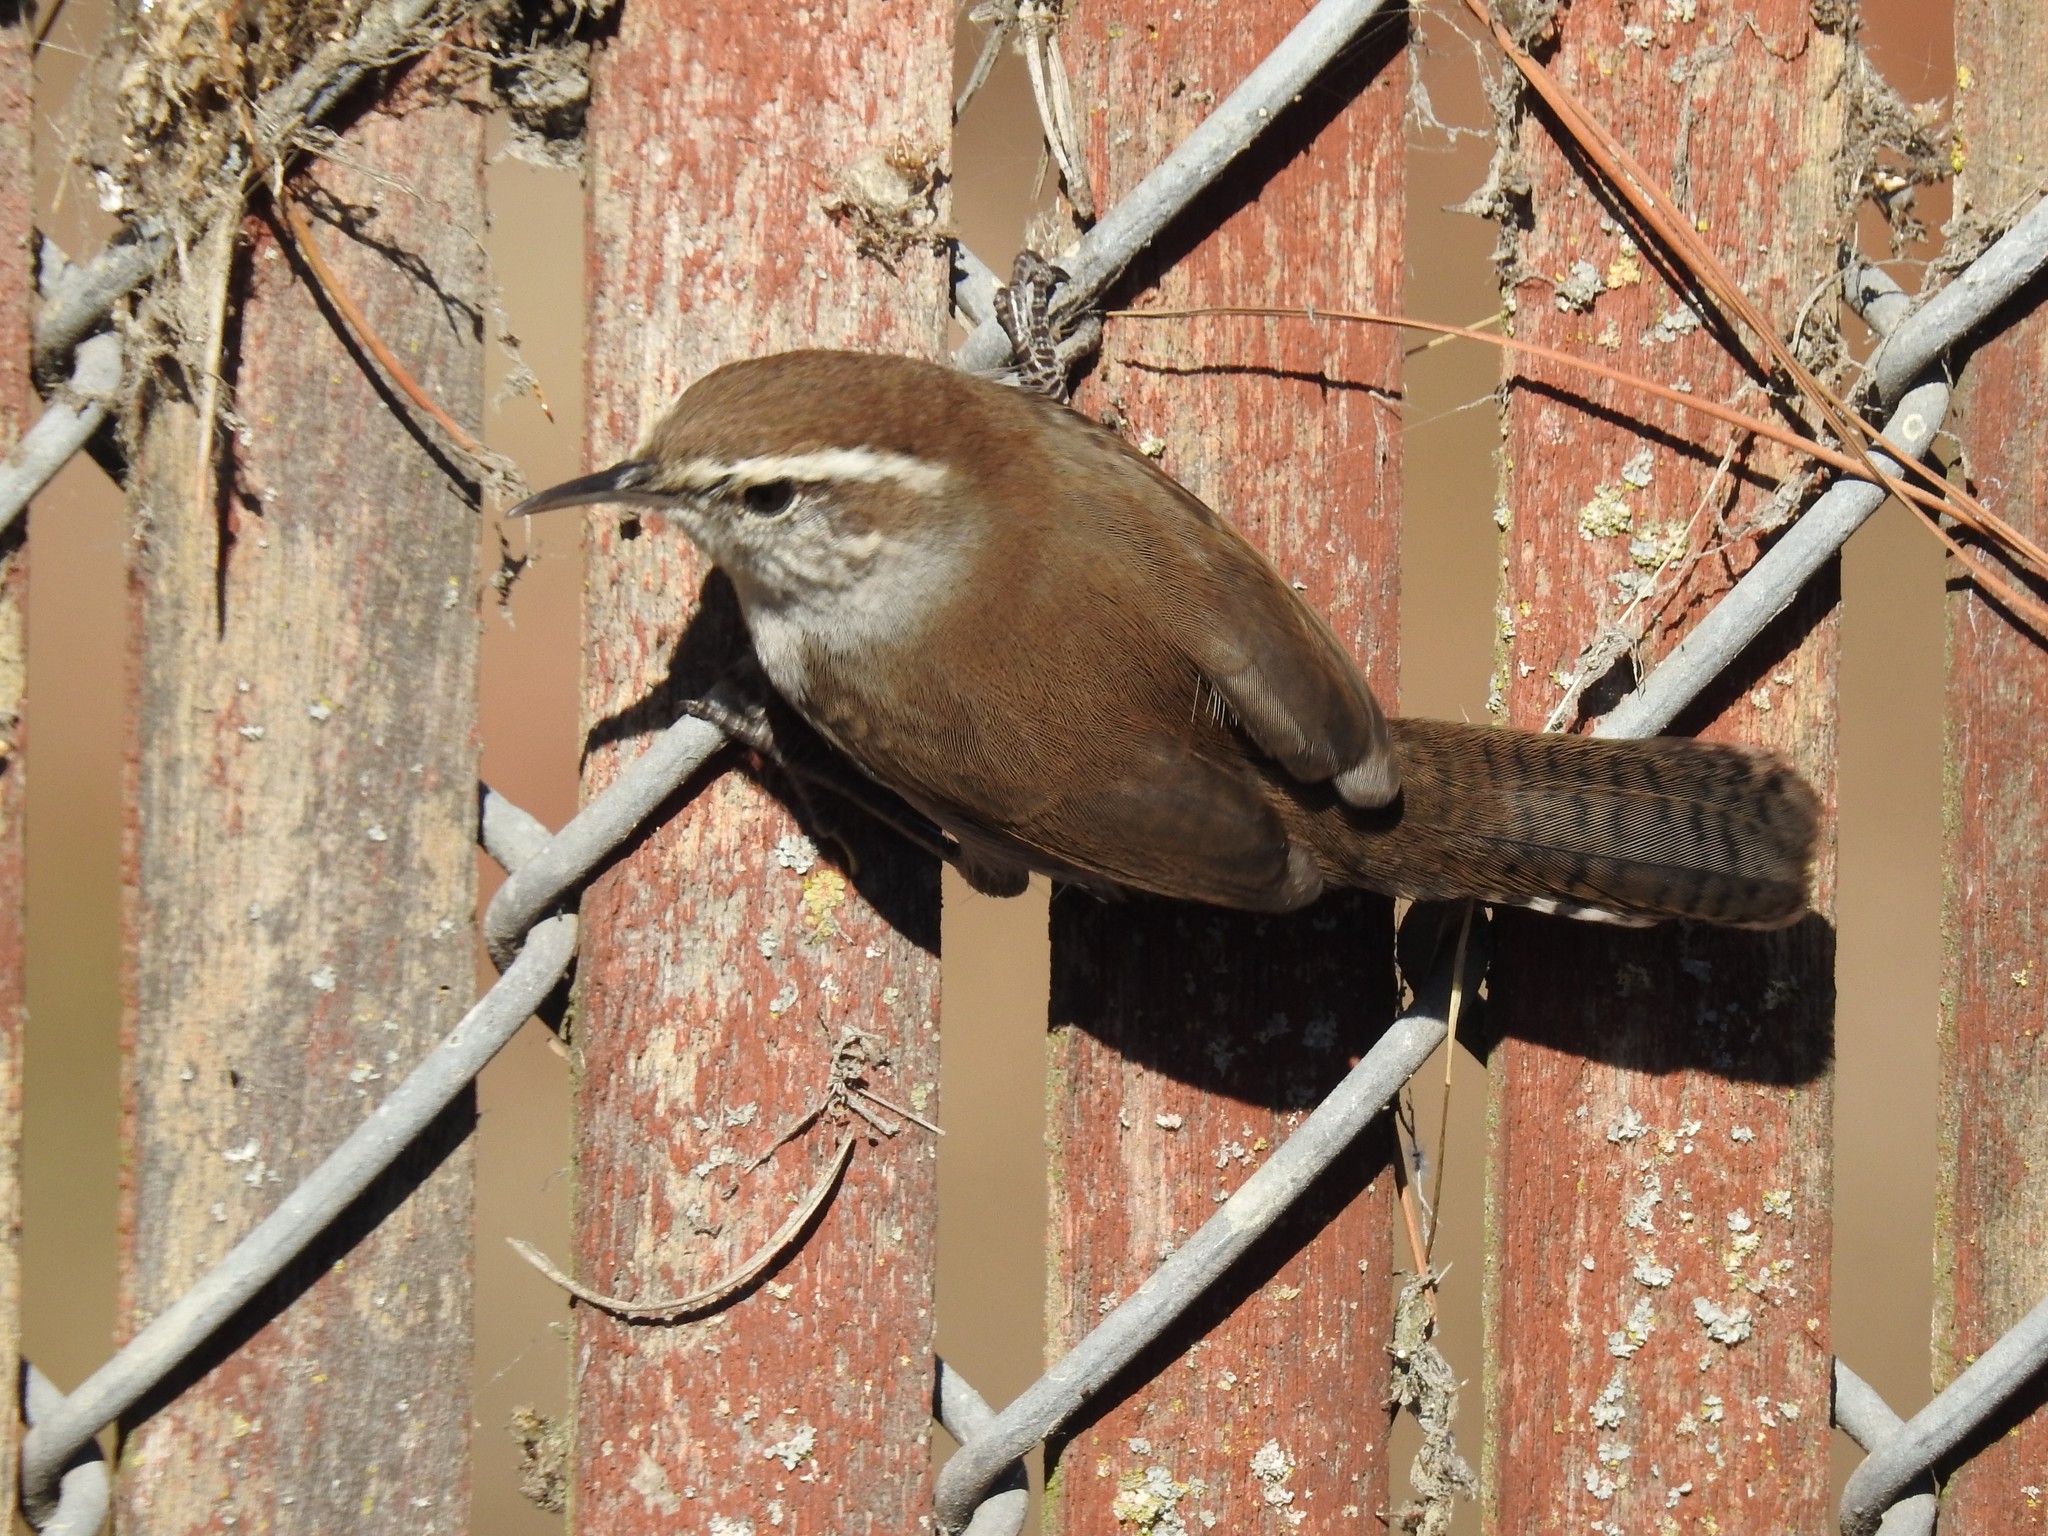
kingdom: Animalia
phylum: Chordata
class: Aves
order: Passeriformes
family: Troglodytidae
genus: Thryomanes
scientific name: Thryomanes bewickii
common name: Bewick's wren
